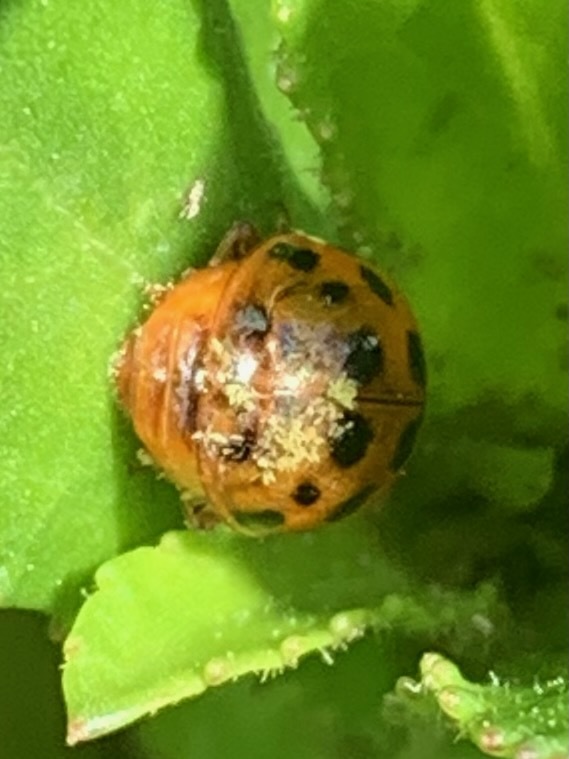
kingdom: Animalia
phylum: Arthropoda
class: Insecta
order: Coleoptera
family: Coccinellidae
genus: Harmonia
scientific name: Harmonia axyridis
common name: Harlequin ladybird
